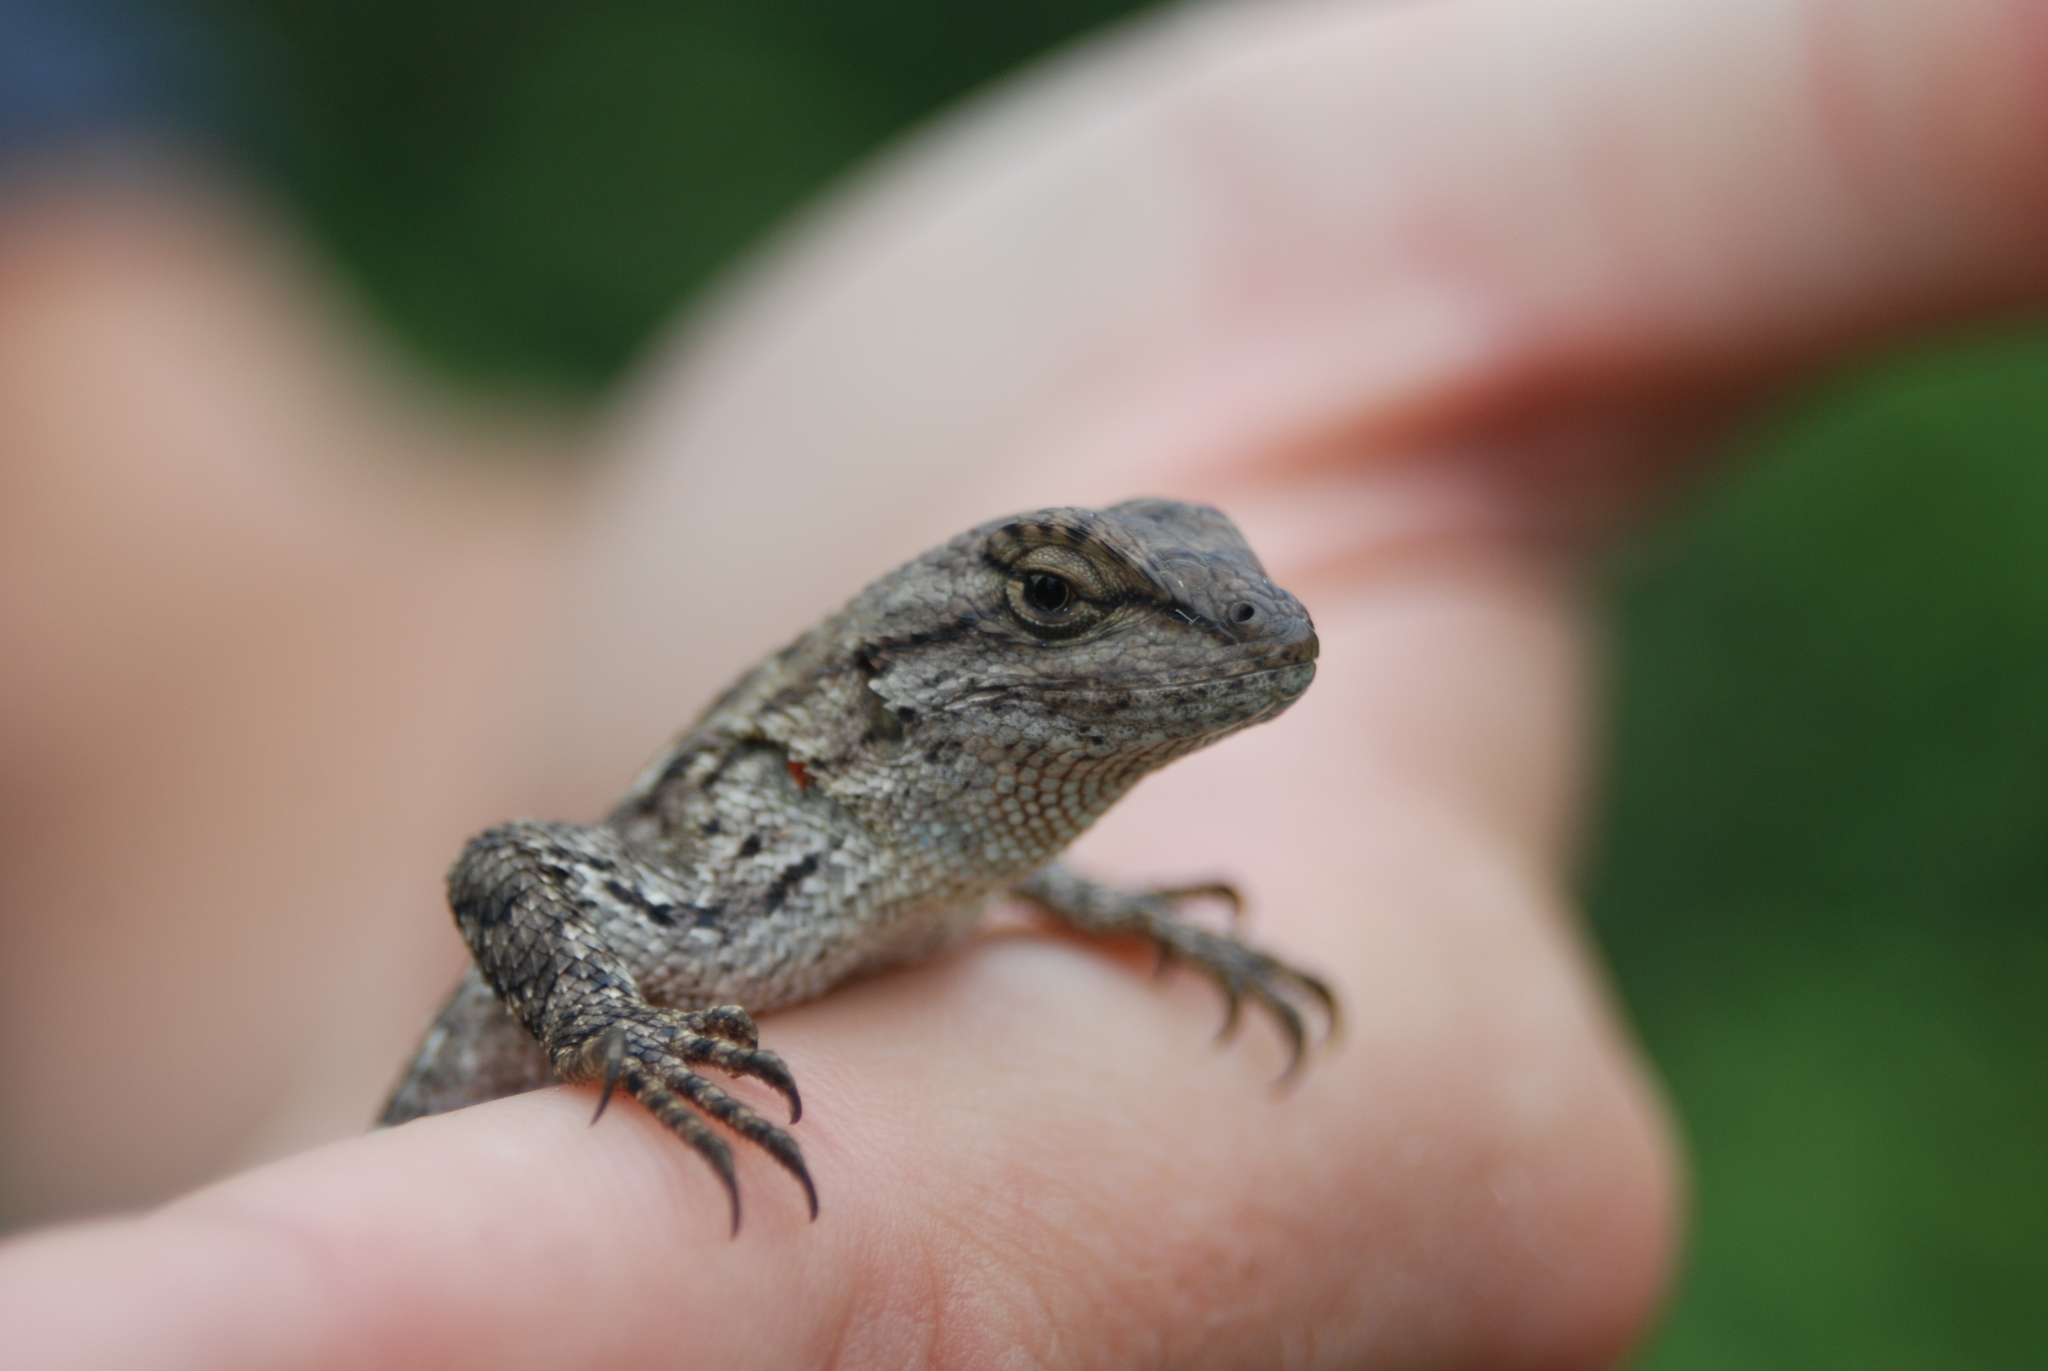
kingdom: Animalia
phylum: Chordata
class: Squamata
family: Phrynosomatidae
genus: Sceloporus
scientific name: Sceloporus consobrinus
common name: Southern prairie lizard
